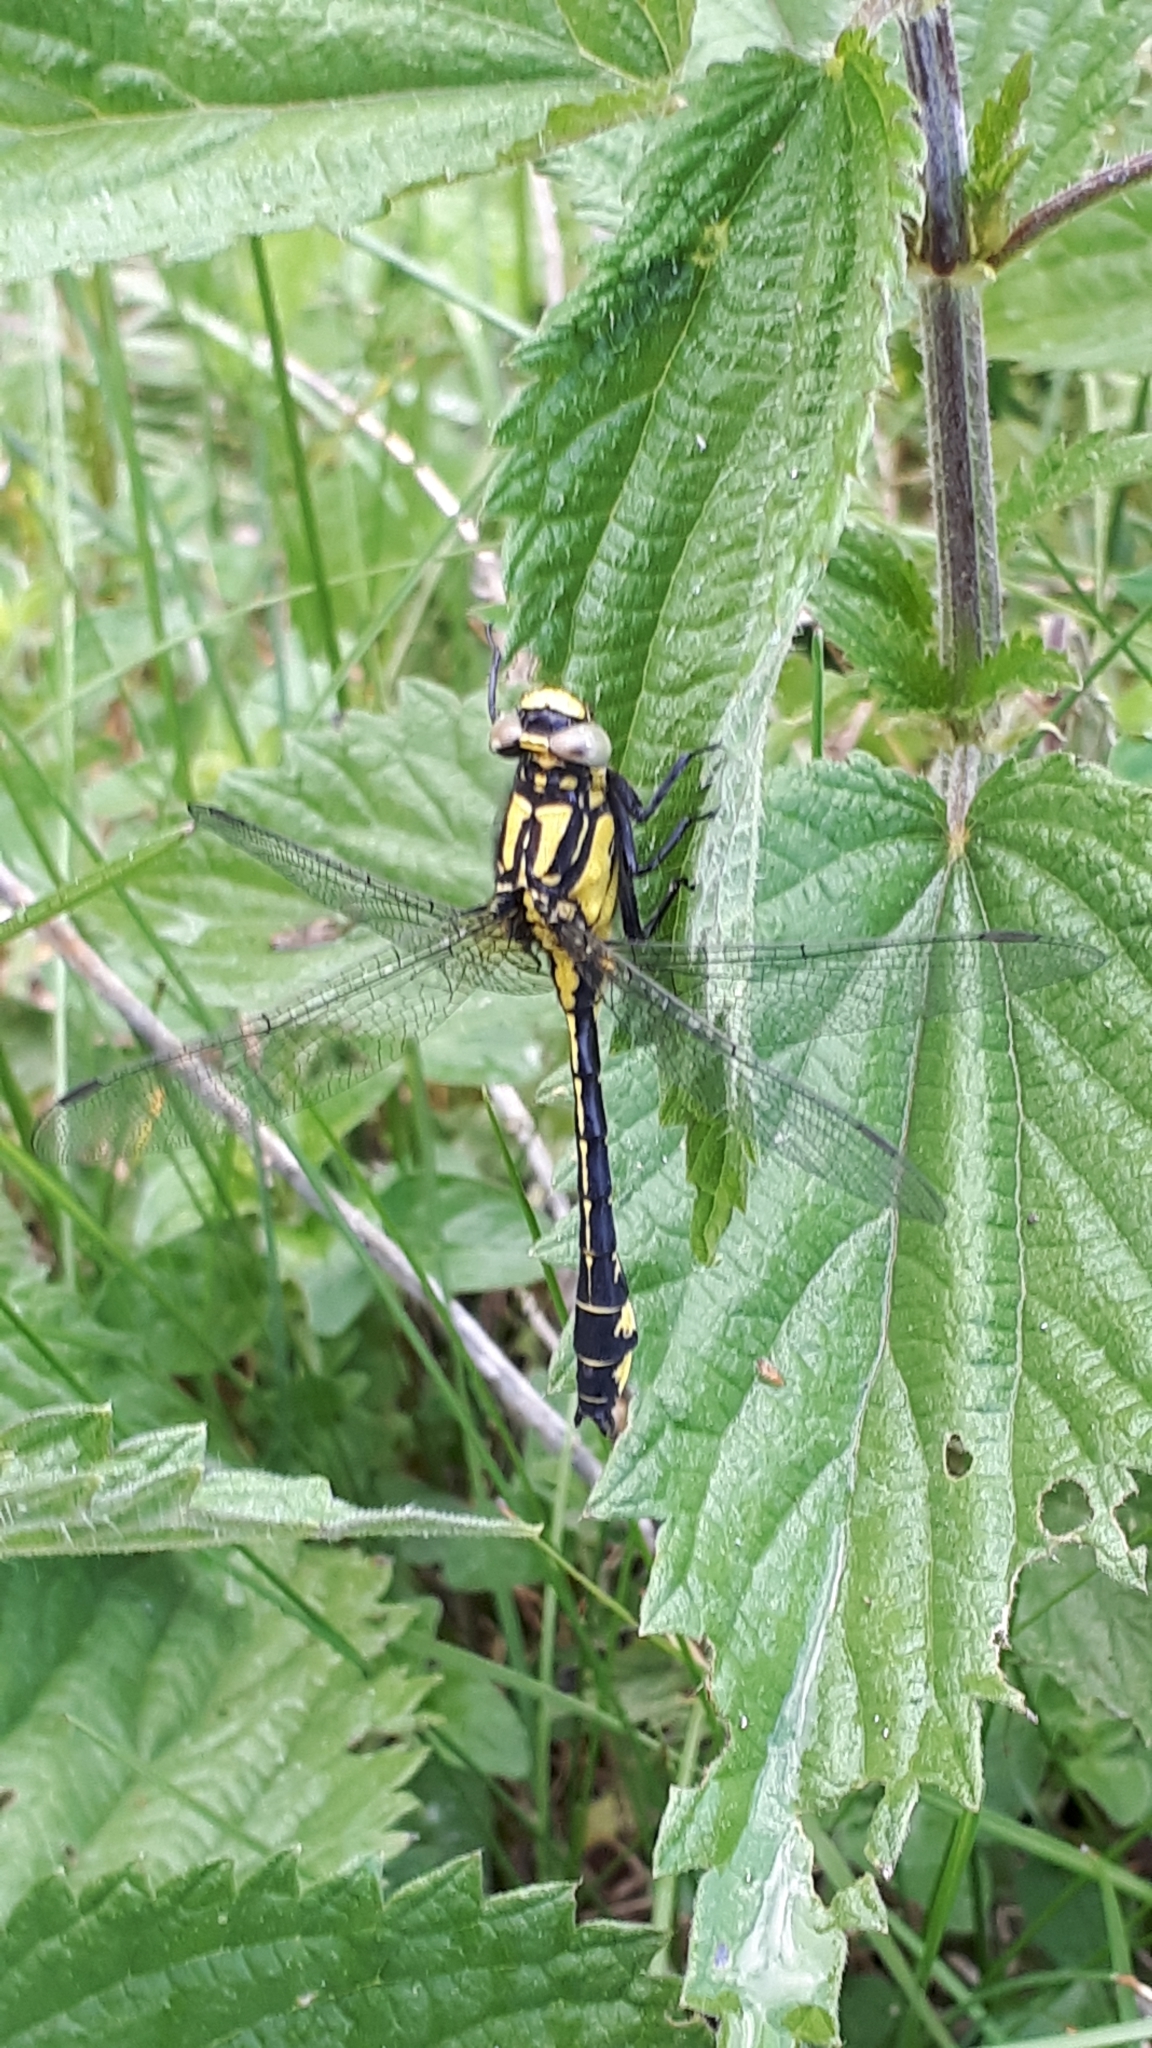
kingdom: Animalia
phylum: Arthropoda
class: Insecta
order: Odonata
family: Gomphidae
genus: Gomphus
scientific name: Gomphus vulgatissimus
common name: Club-tailed dragonfly
